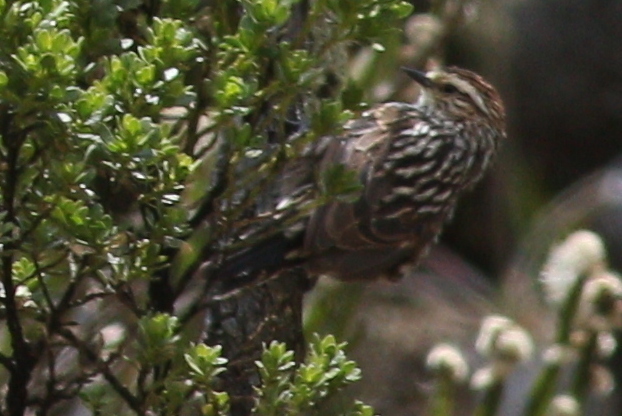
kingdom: Animalia
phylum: Chordata
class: Aves
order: Passeriformes
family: Furnariidae
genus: Leptasthenura
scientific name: Leptasthenura andicola
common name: Andean tit-spinetail
